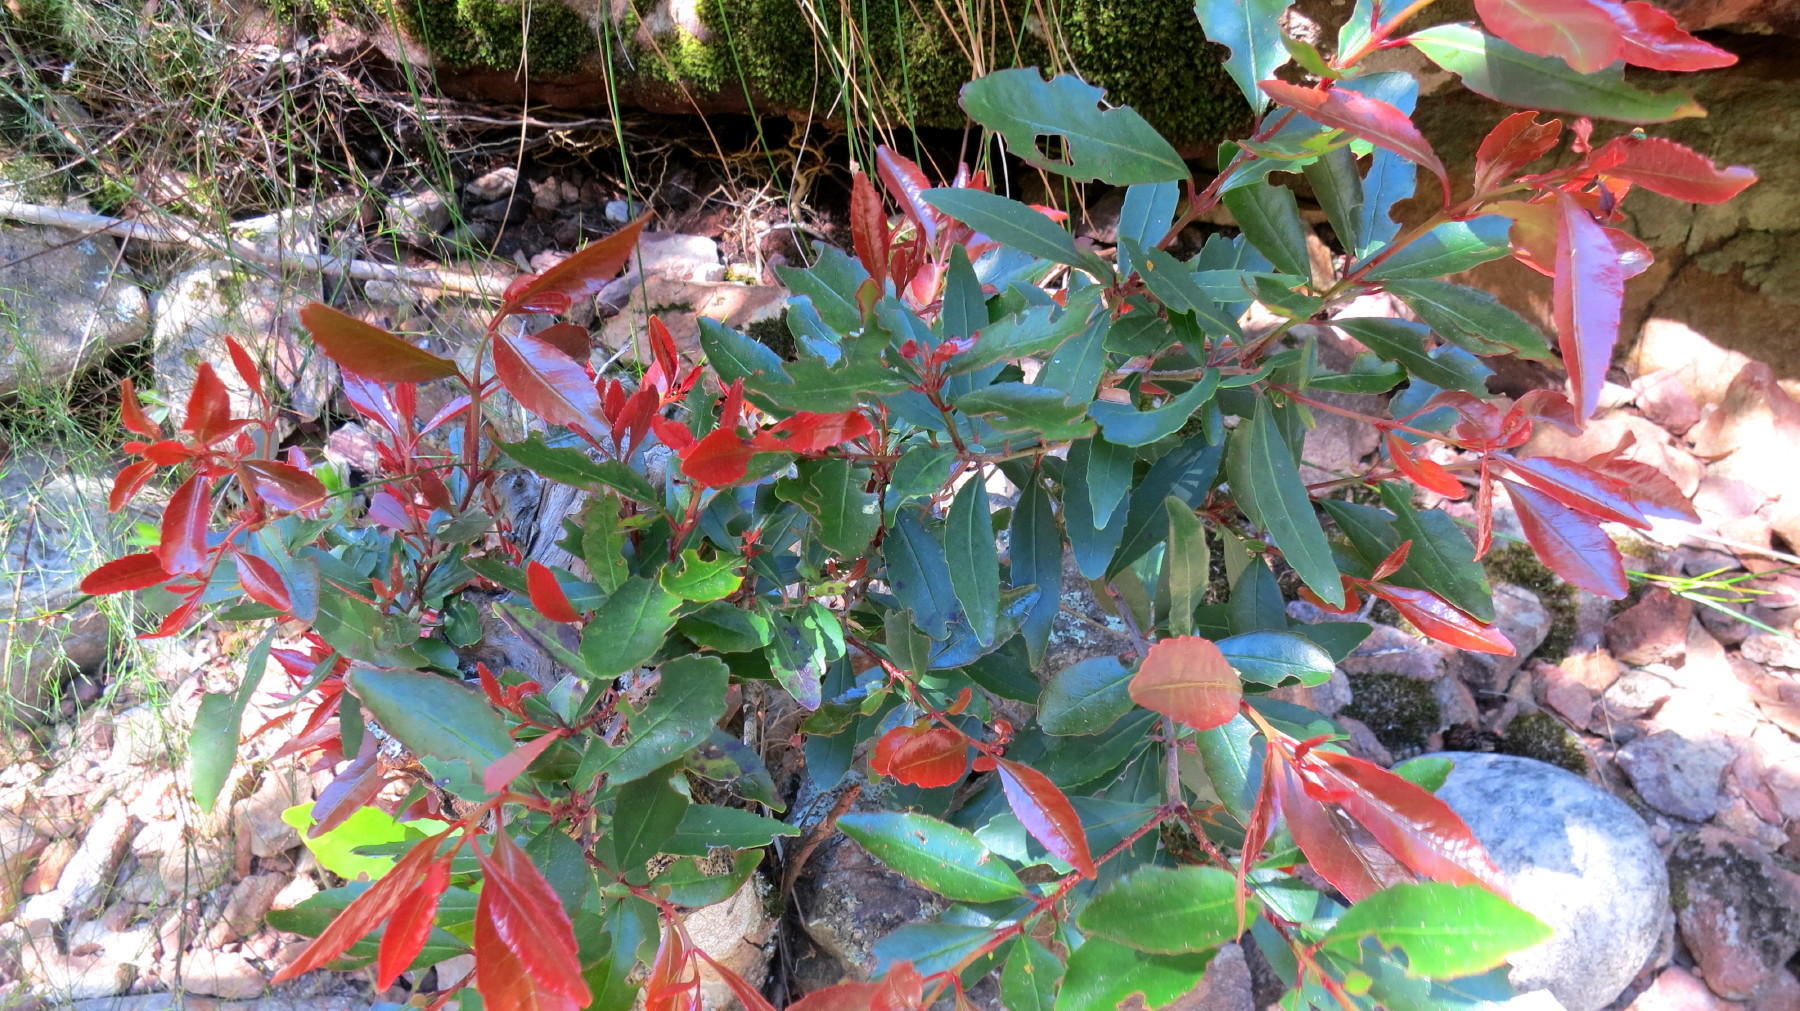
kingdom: Plantae
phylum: Tracheophyta
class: Magnoliopsida
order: Celastrales
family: Celastraceae
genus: Elaeodendron
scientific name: Elaeodendron schinoides
